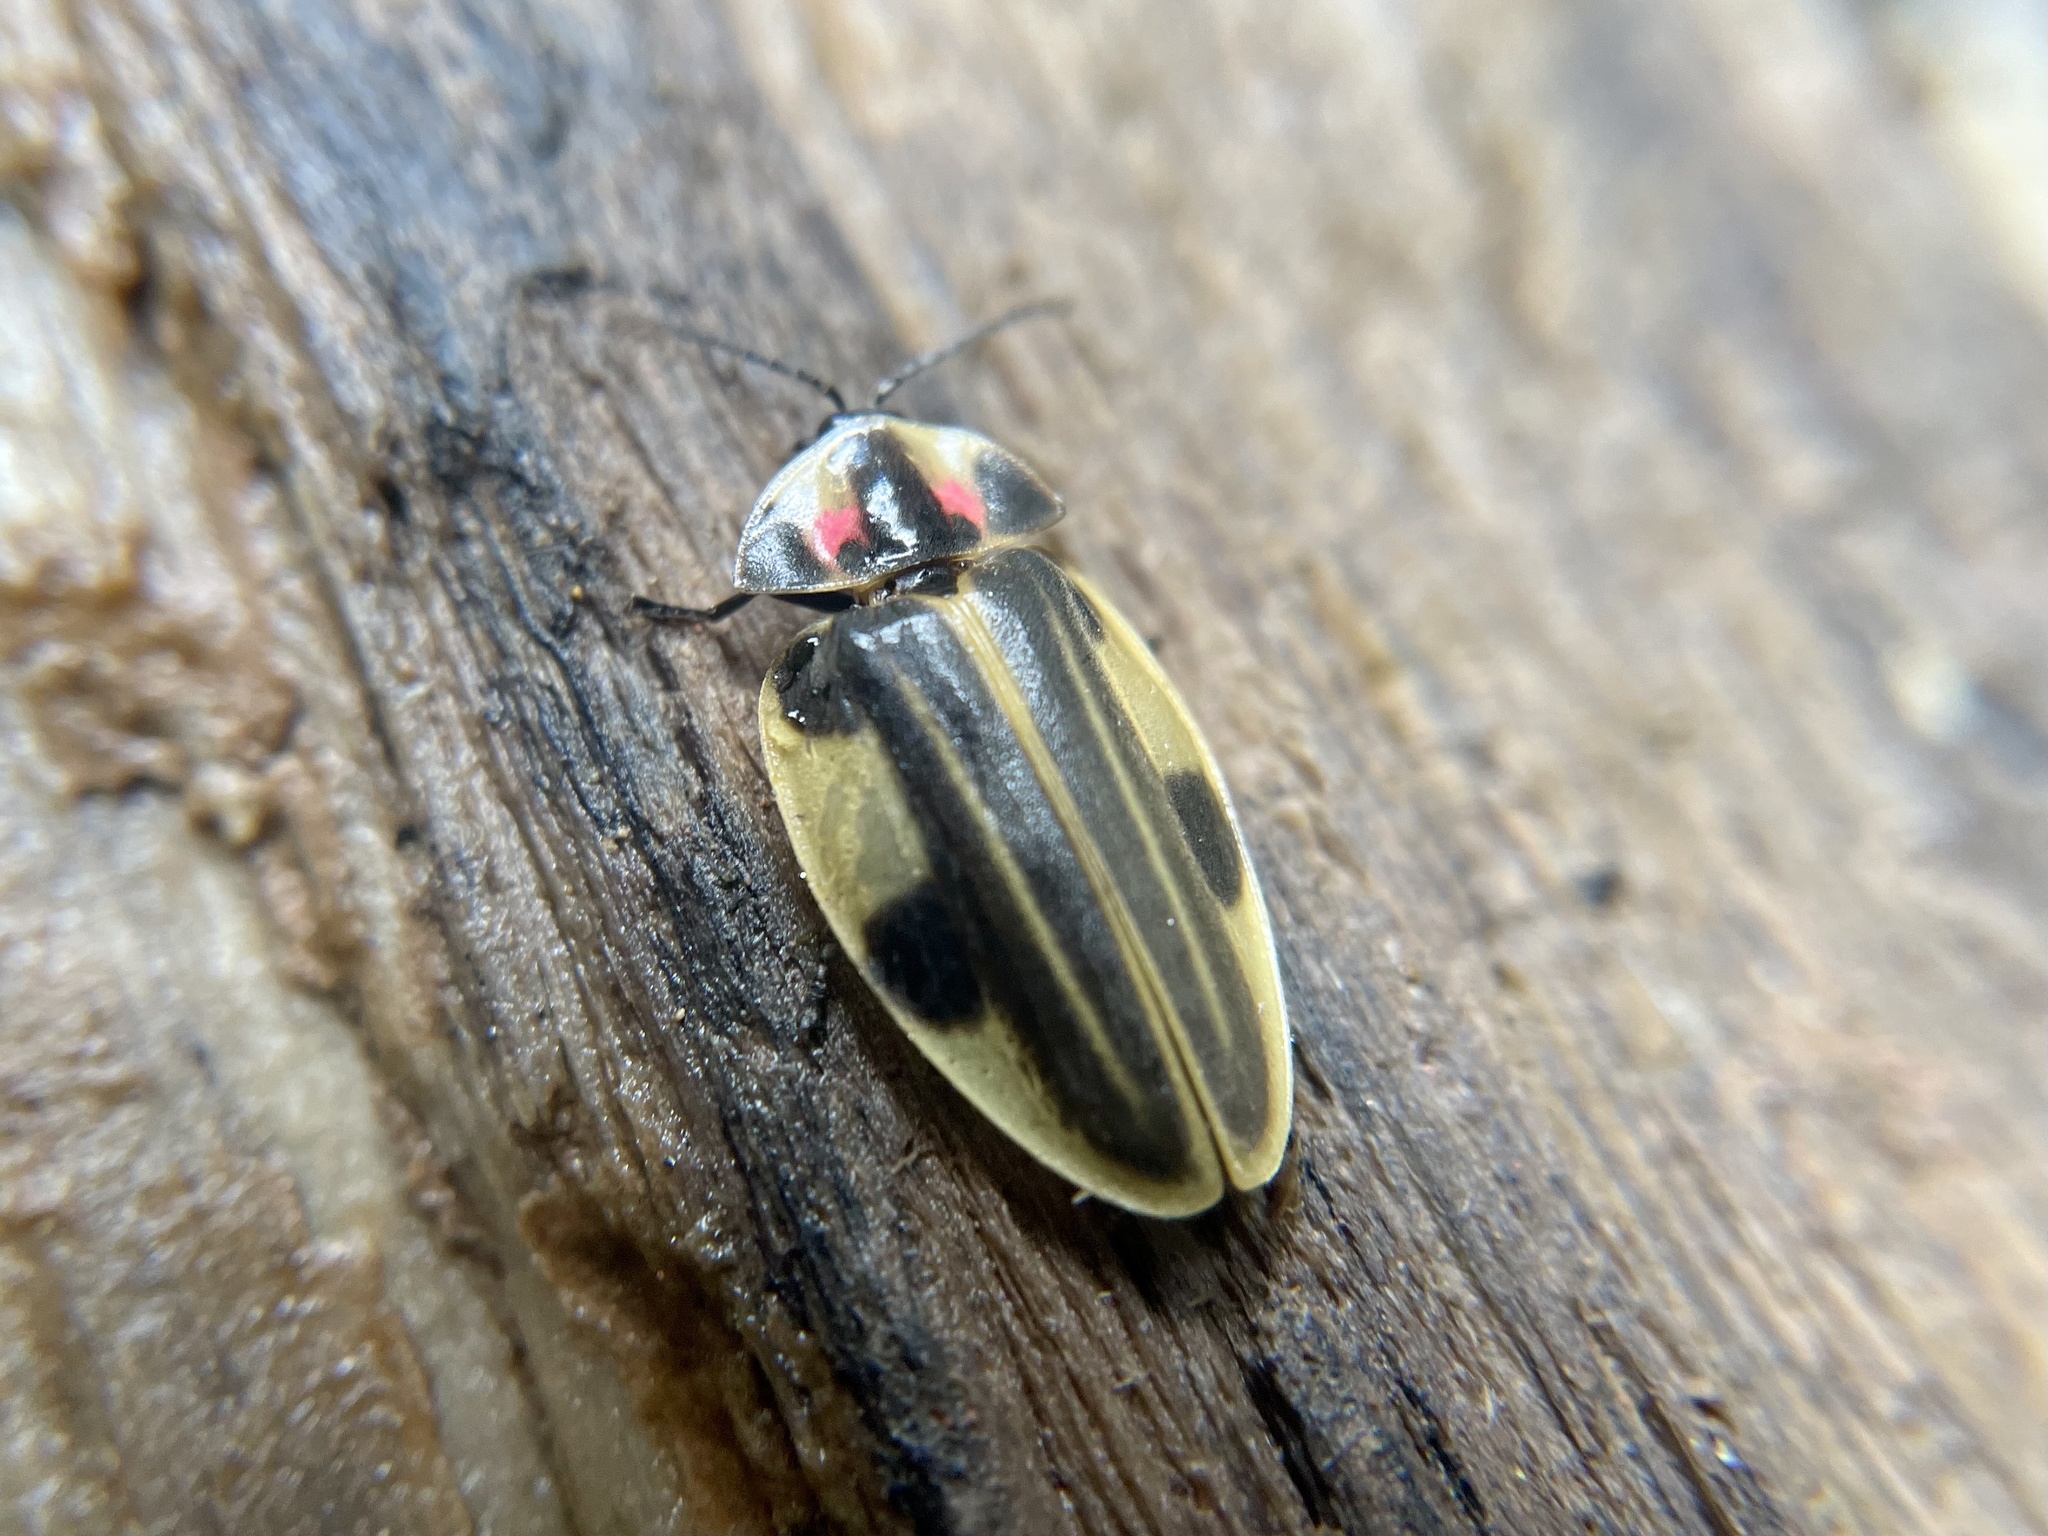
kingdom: Animalia
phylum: Arthropoda
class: Insecta
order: Coleoptera
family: Lampyridae
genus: Aspisoma
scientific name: Aspisoma depictum
